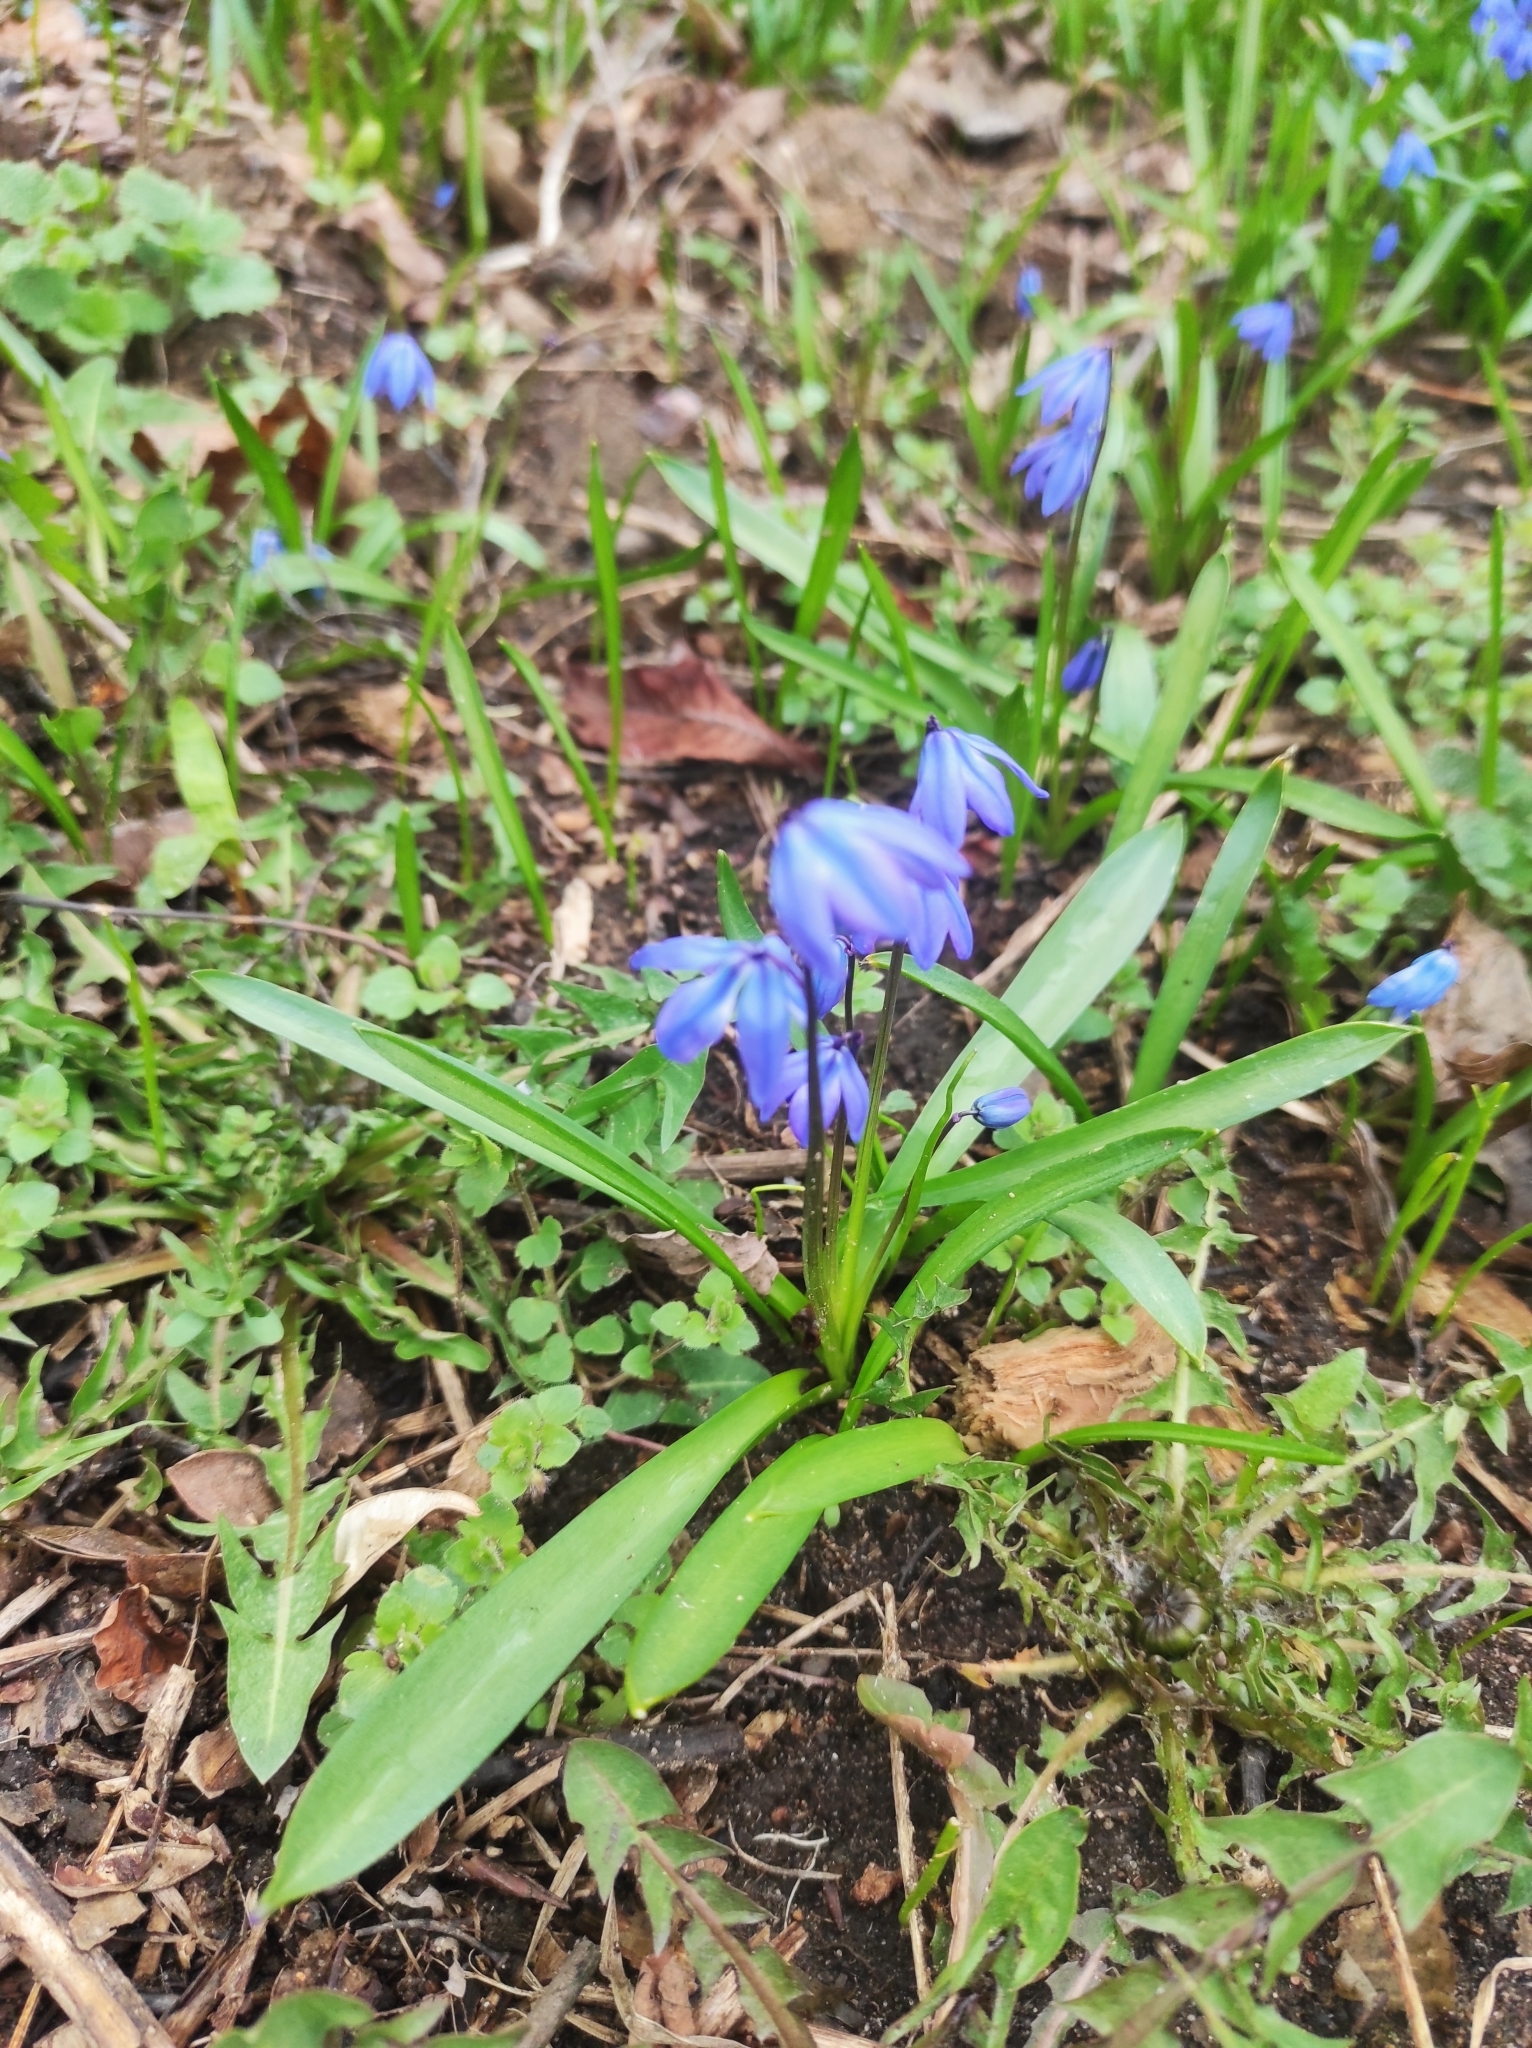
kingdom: Plantae
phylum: Tracheophyta
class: Liliopsida
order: Asparagales
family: Asparagaceae
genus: Scilla
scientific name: Scilla siberica
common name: Siberian squill
